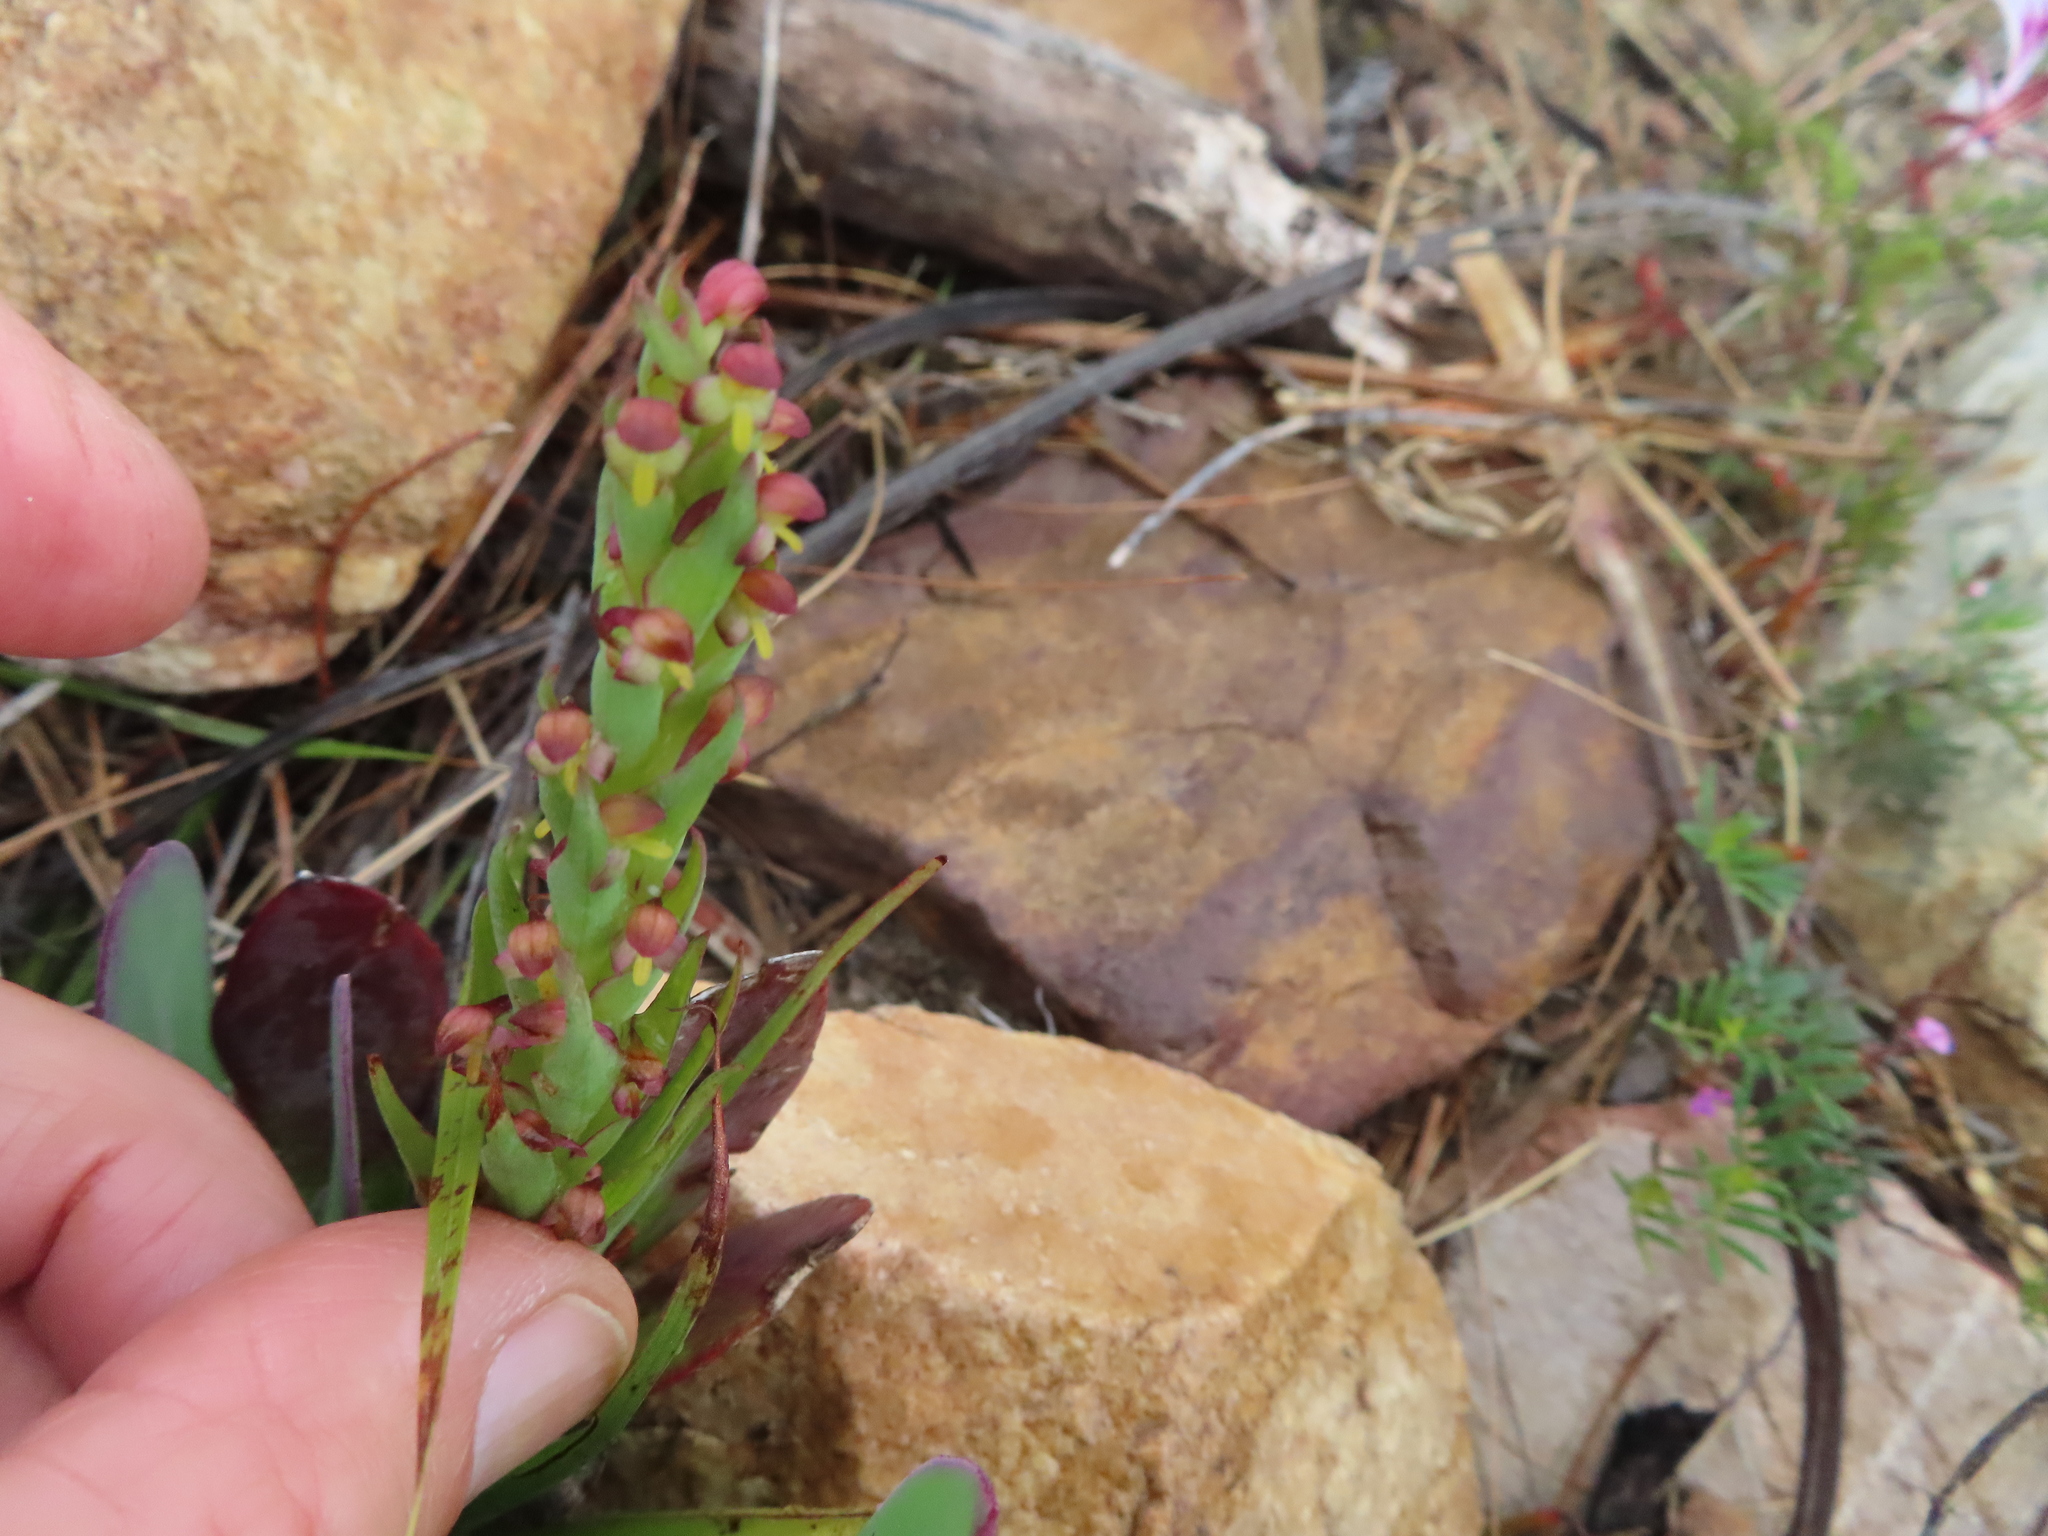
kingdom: Plantae
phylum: Tracheophyta
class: Liliopsida
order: Asparagales
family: Orchidaceae
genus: Disa
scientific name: Disa bracteata
